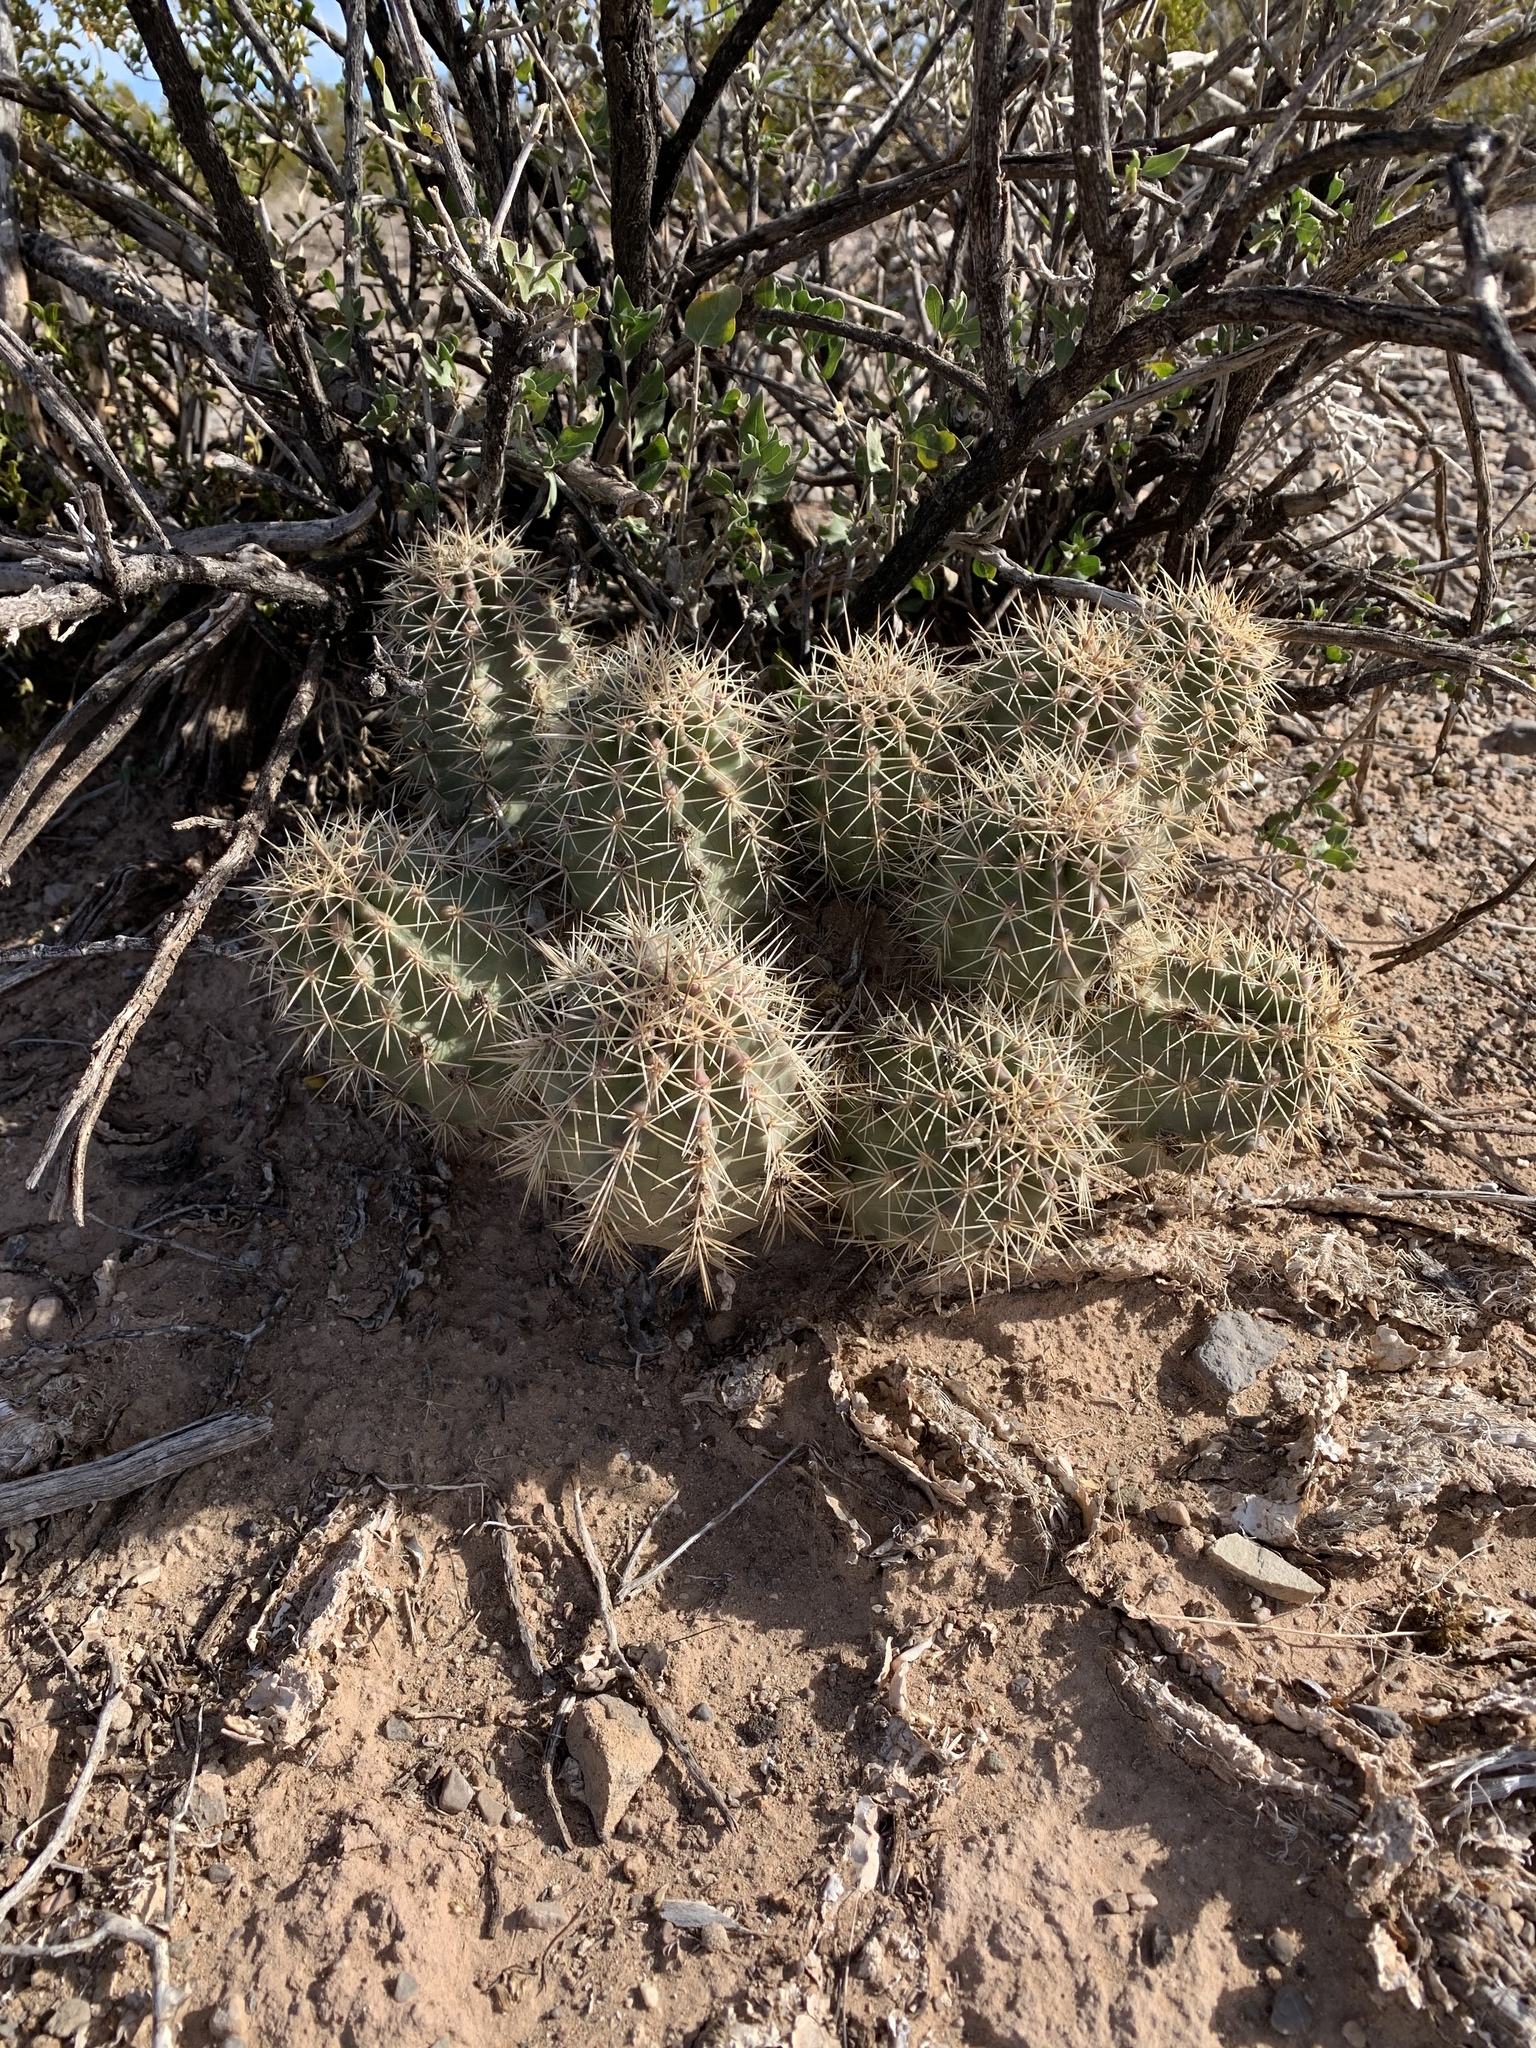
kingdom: Plantae
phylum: Tracheophyta
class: Magnoliopsida
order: Caryophyllales
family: Cactaceae
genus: Echinocereus
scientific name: Echinocereus coccineus
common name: Scarlet hedgehog cactus
